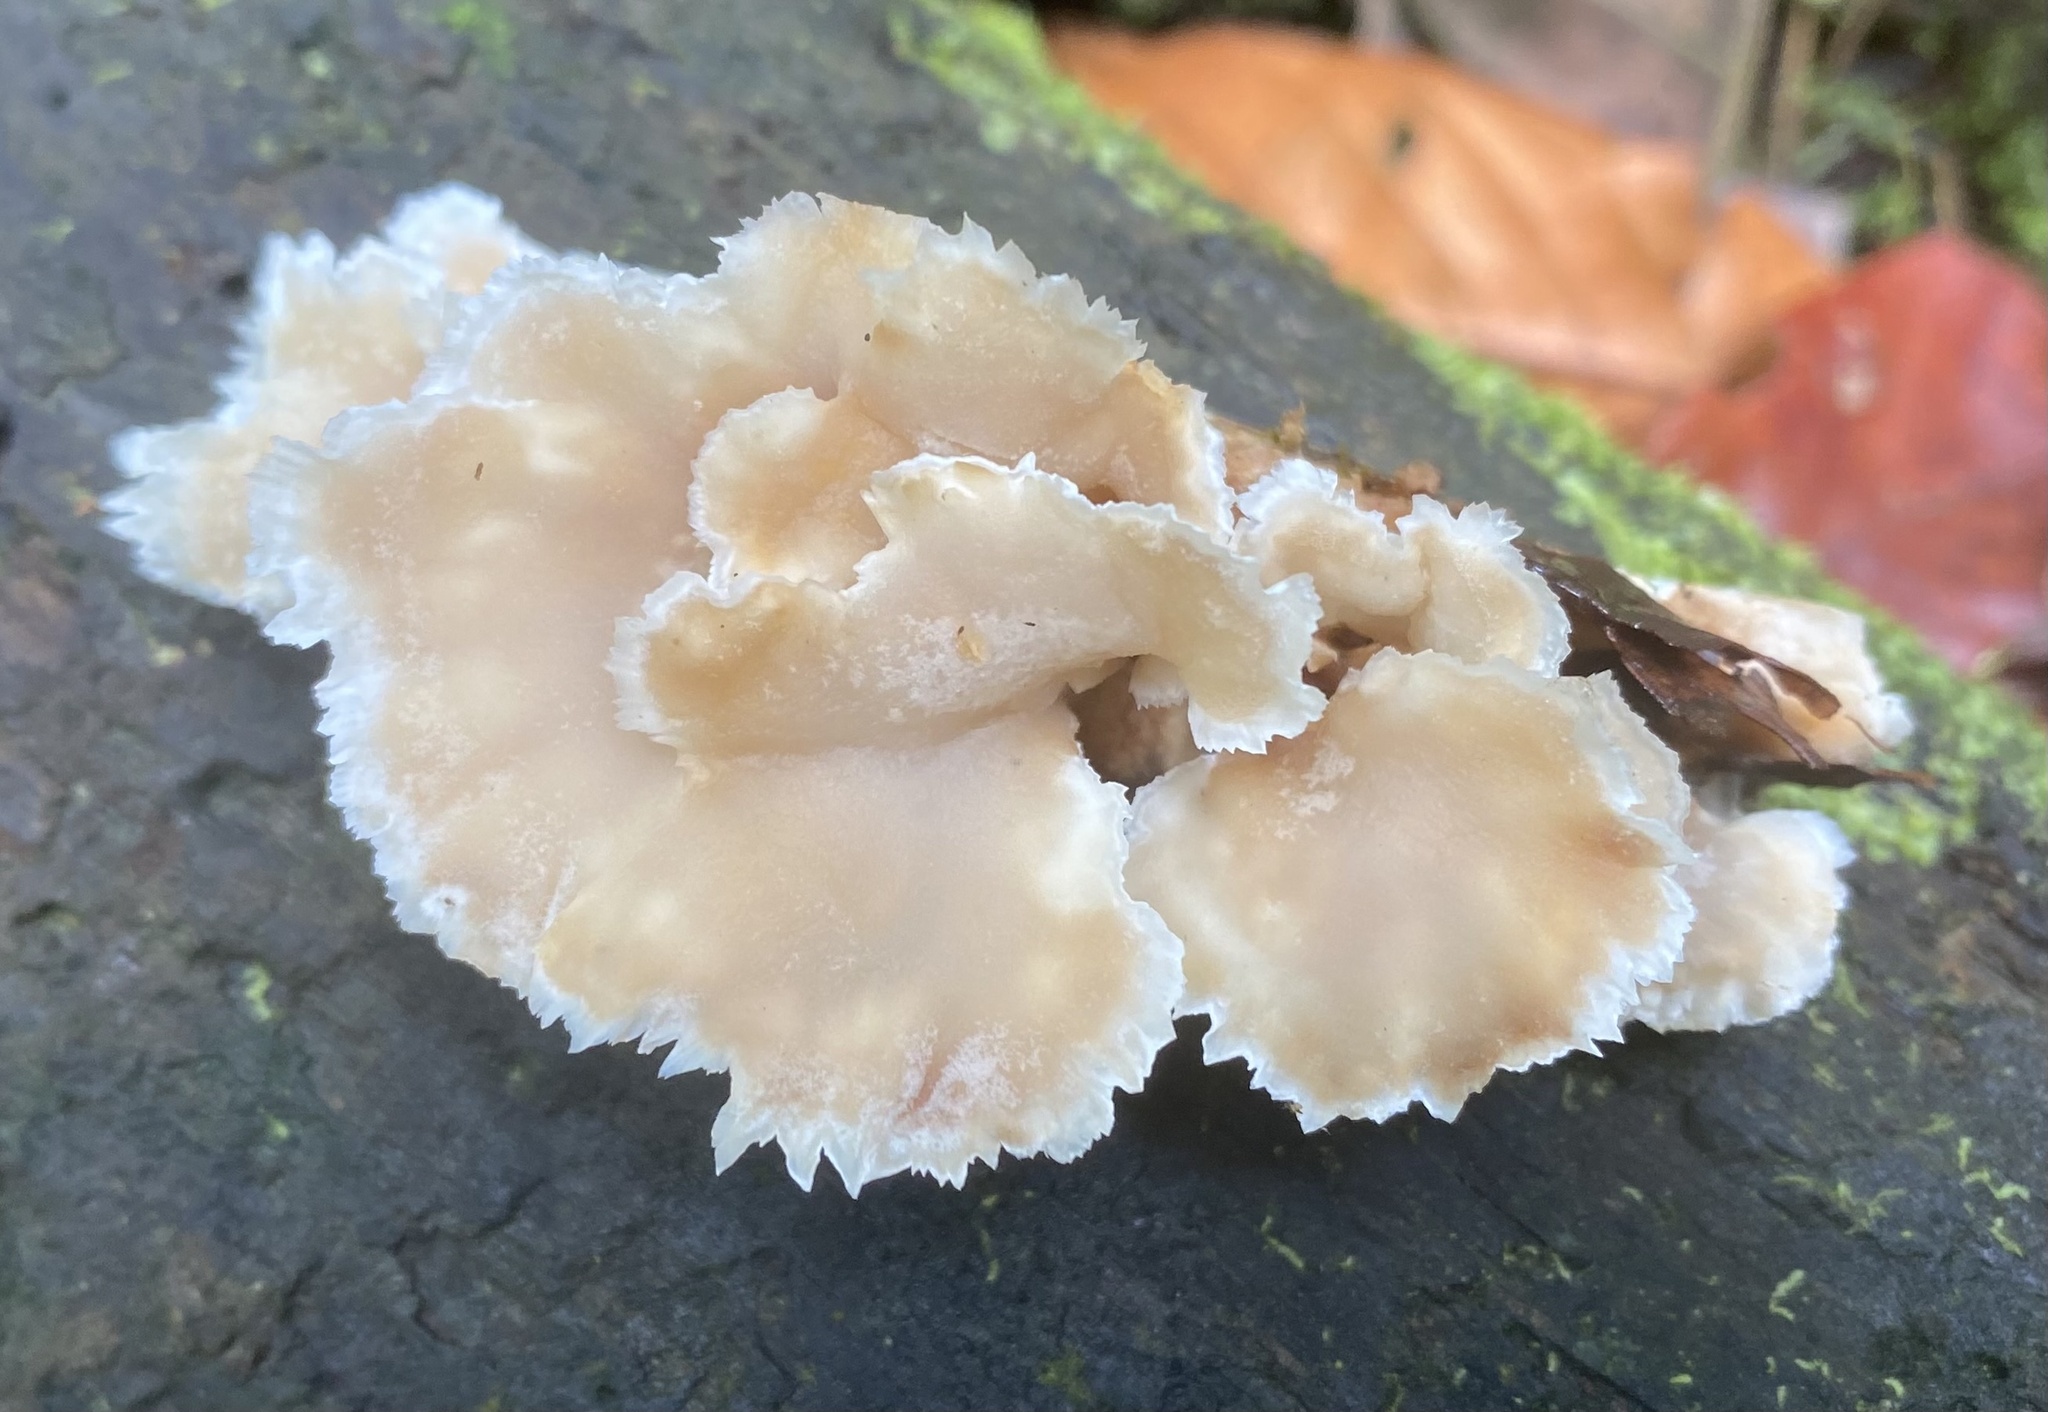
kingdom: Fungi
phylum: Basidiomycota
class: Agaricomycetes
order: Polyporales
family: Panaceae
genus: Cymatoderma
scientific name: Cymatoderma dendriticum
